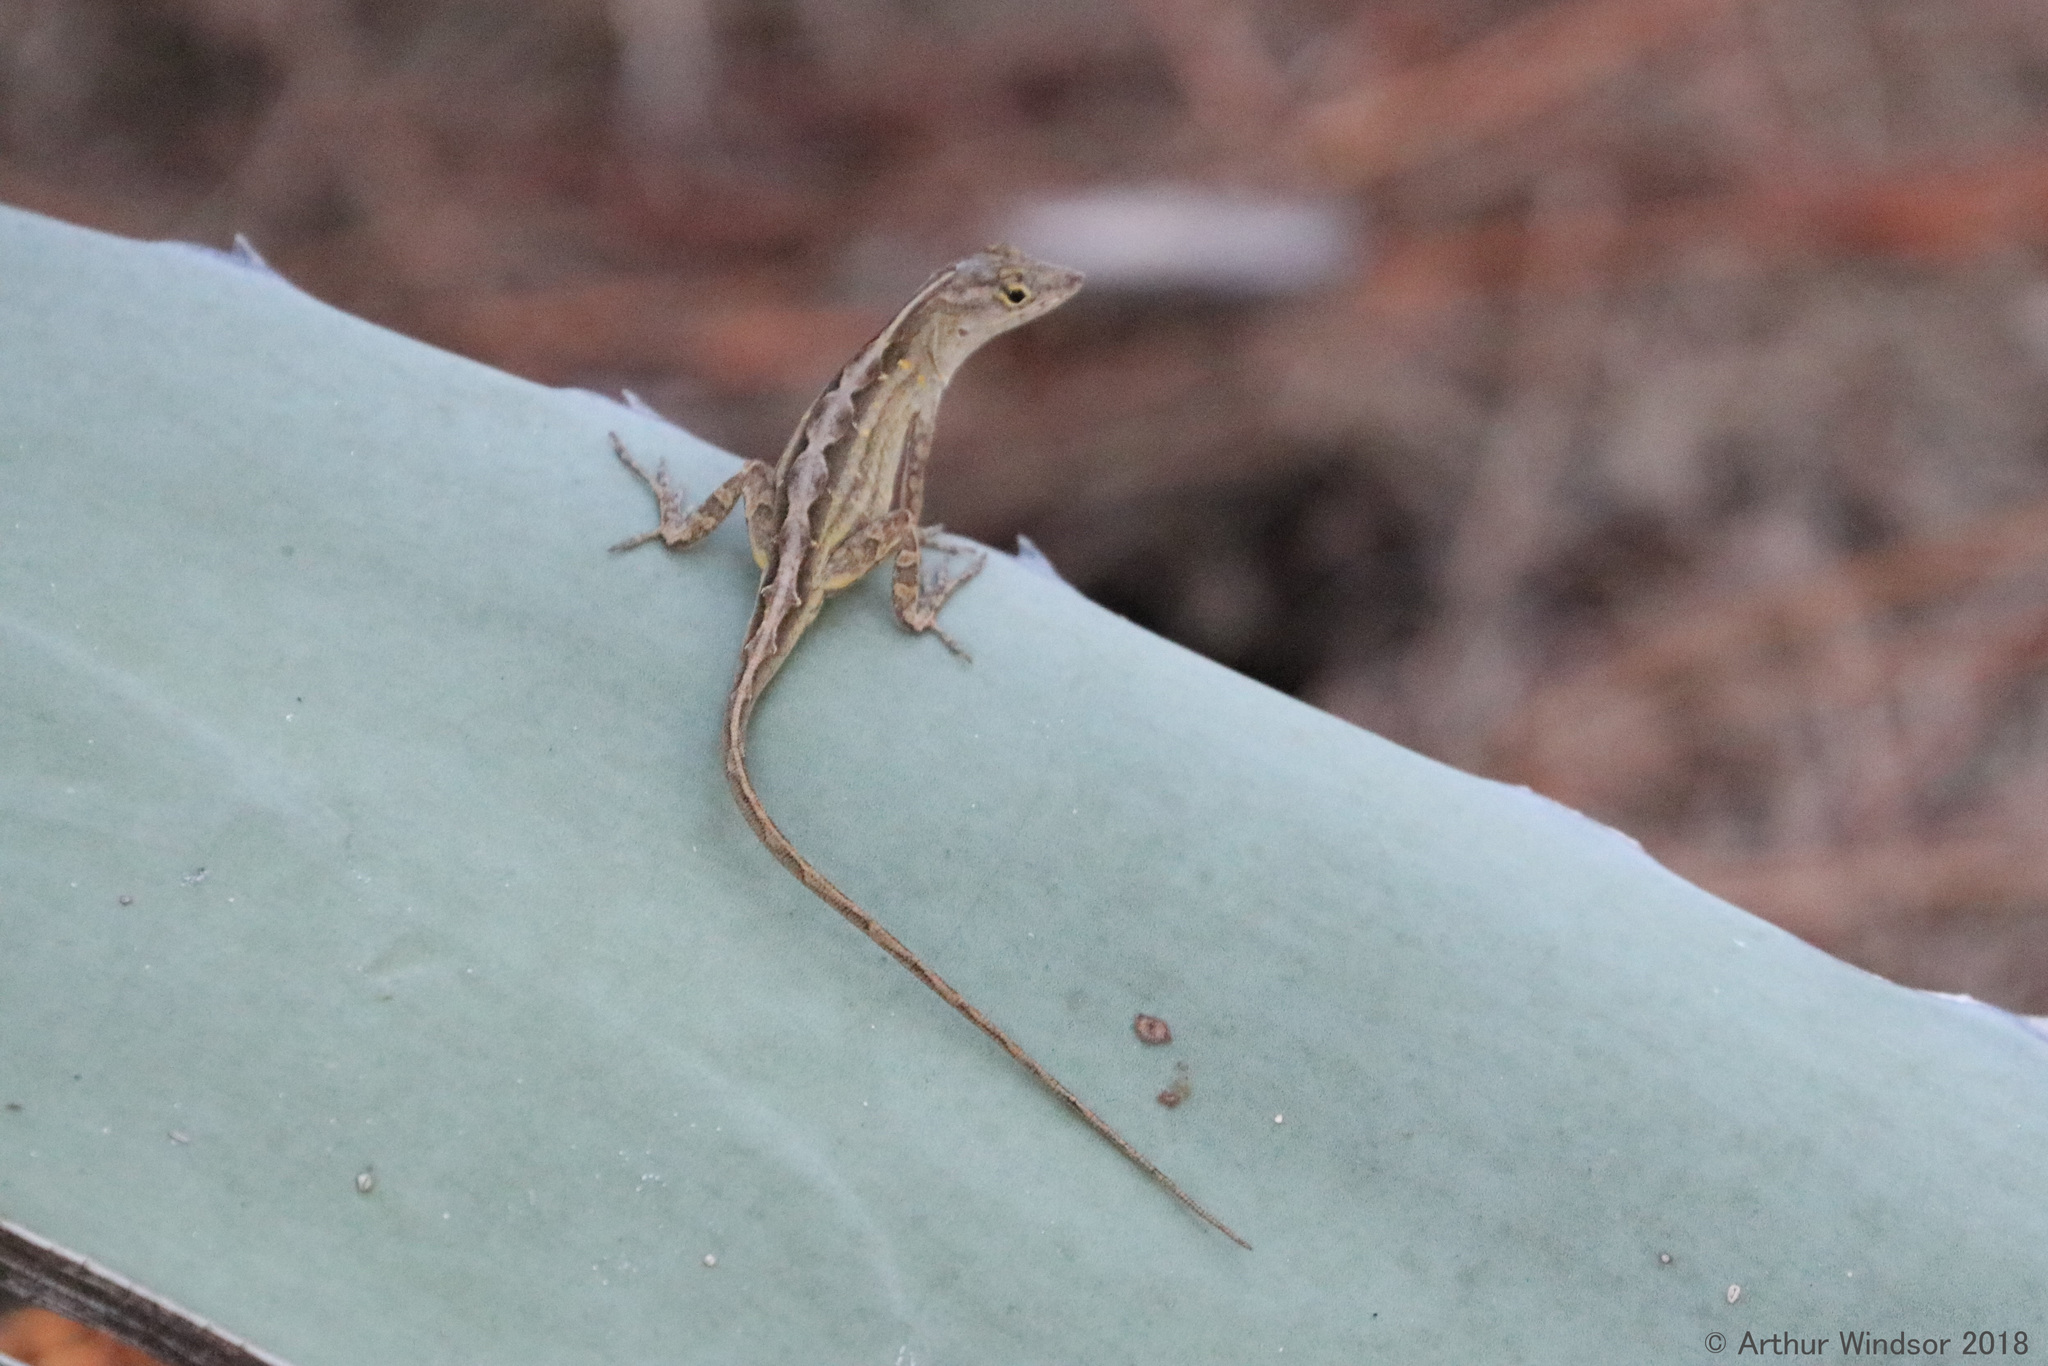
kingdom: Animalia
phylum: Chordata
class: Squamata
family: Dactyloidae
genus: Anolis
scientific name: Anolis sagrei
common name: Brown anole
